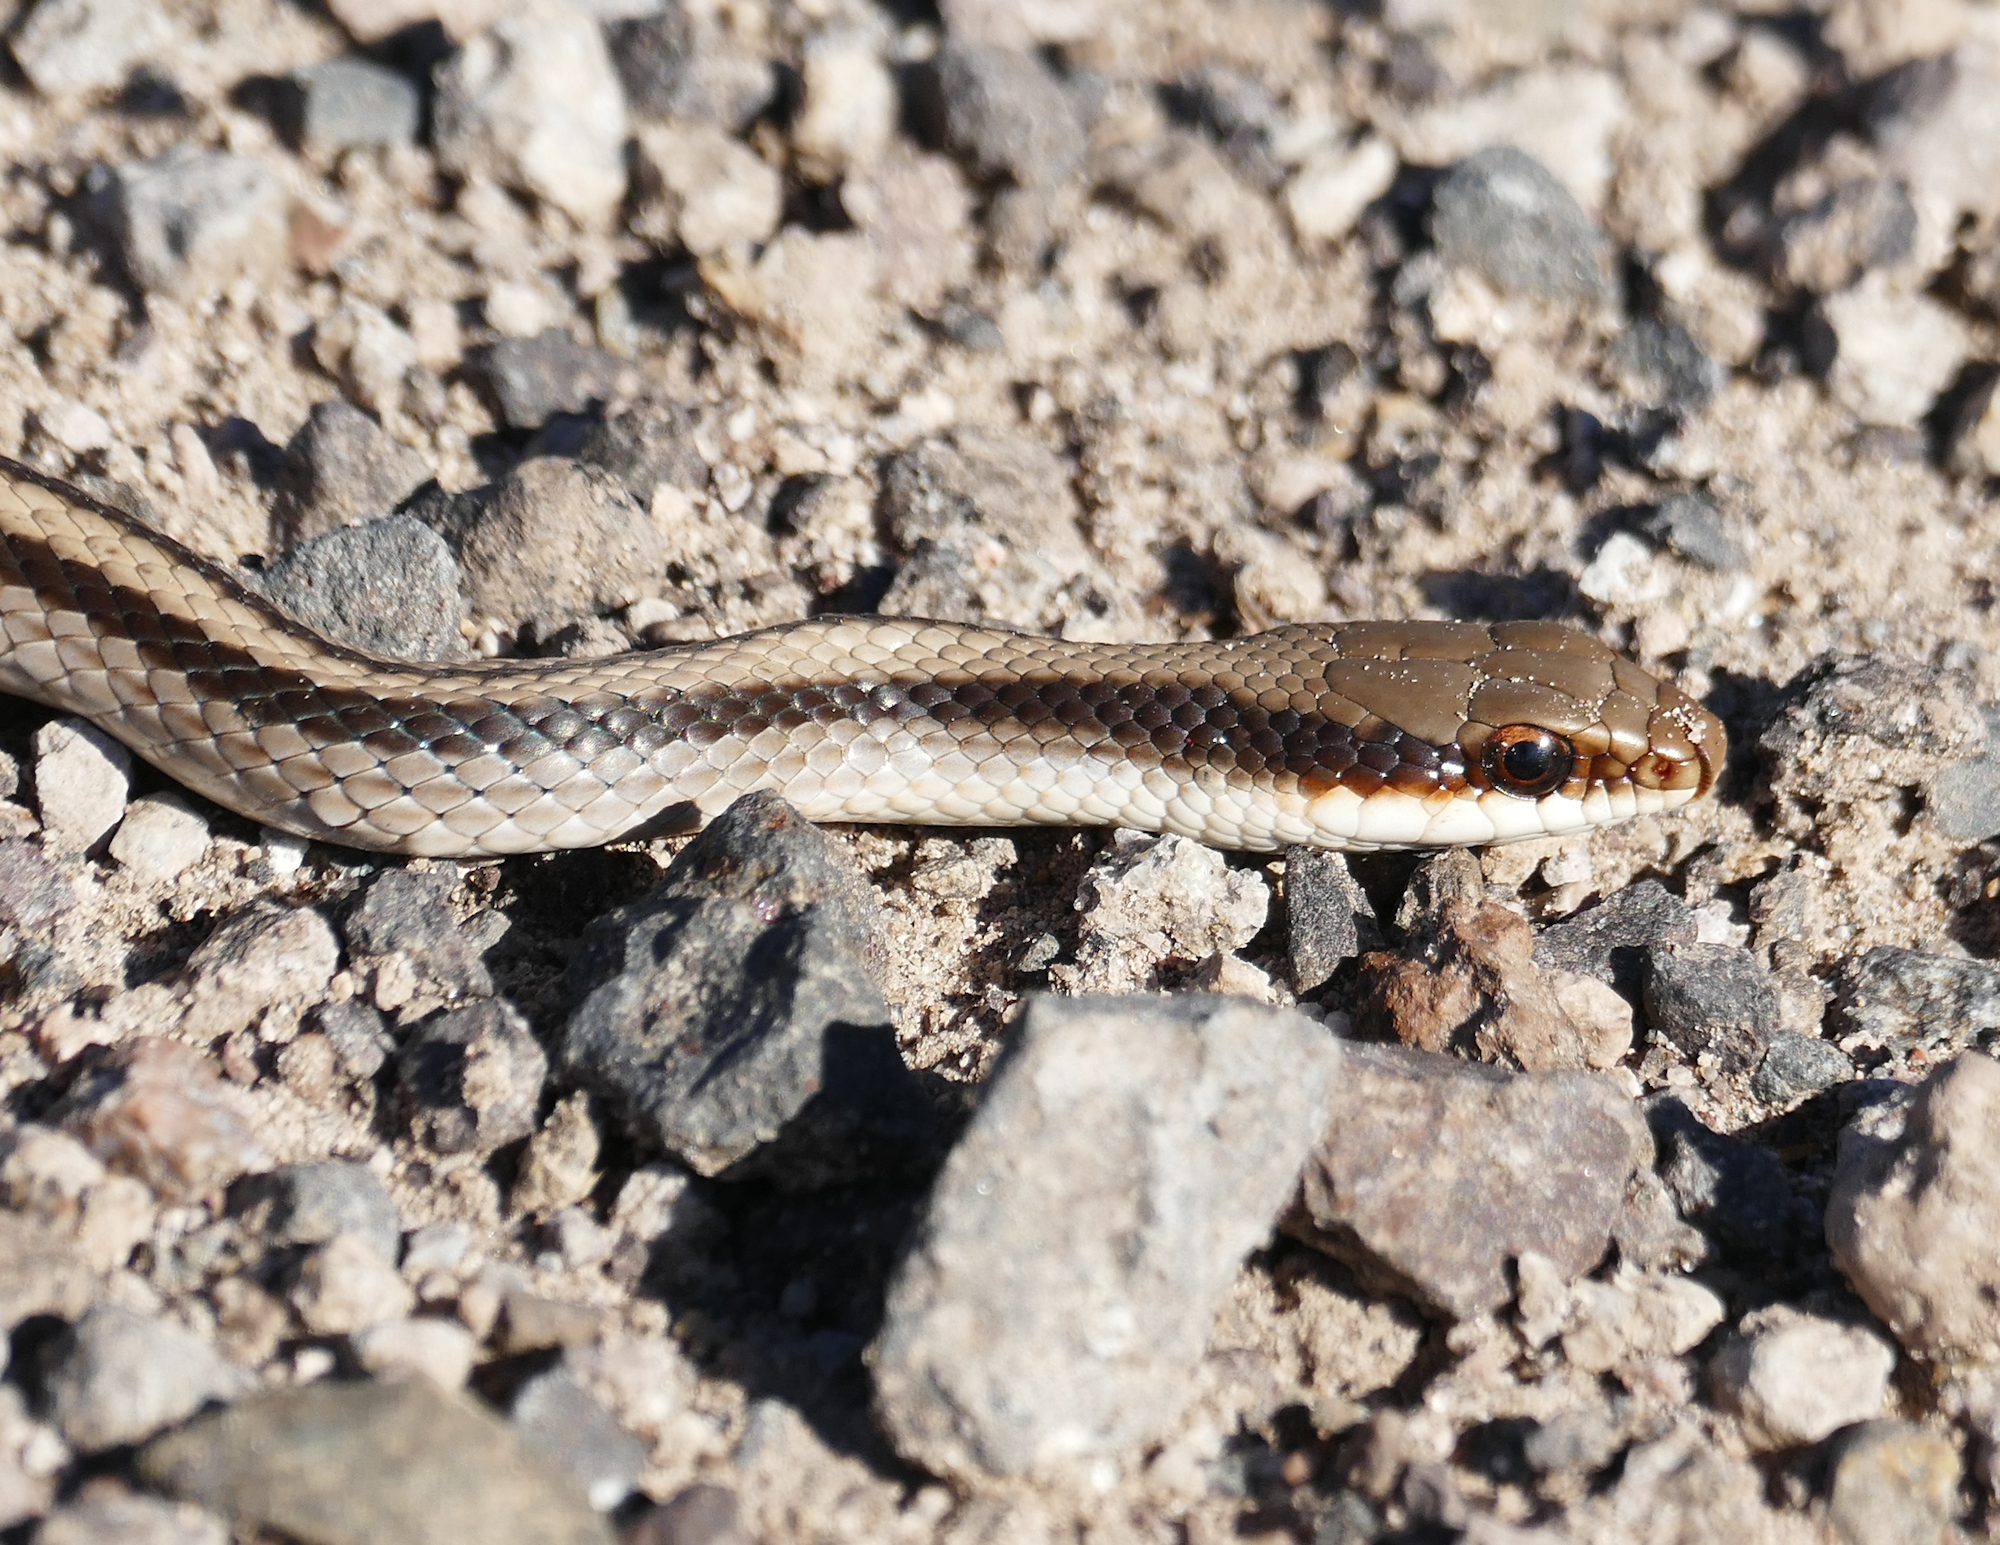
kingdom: Animalia
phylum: Chordata
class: Squamata
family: Colubridae
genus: Salvadora
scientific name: Salvadora grahamiae
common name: Mountain patchnose snake
